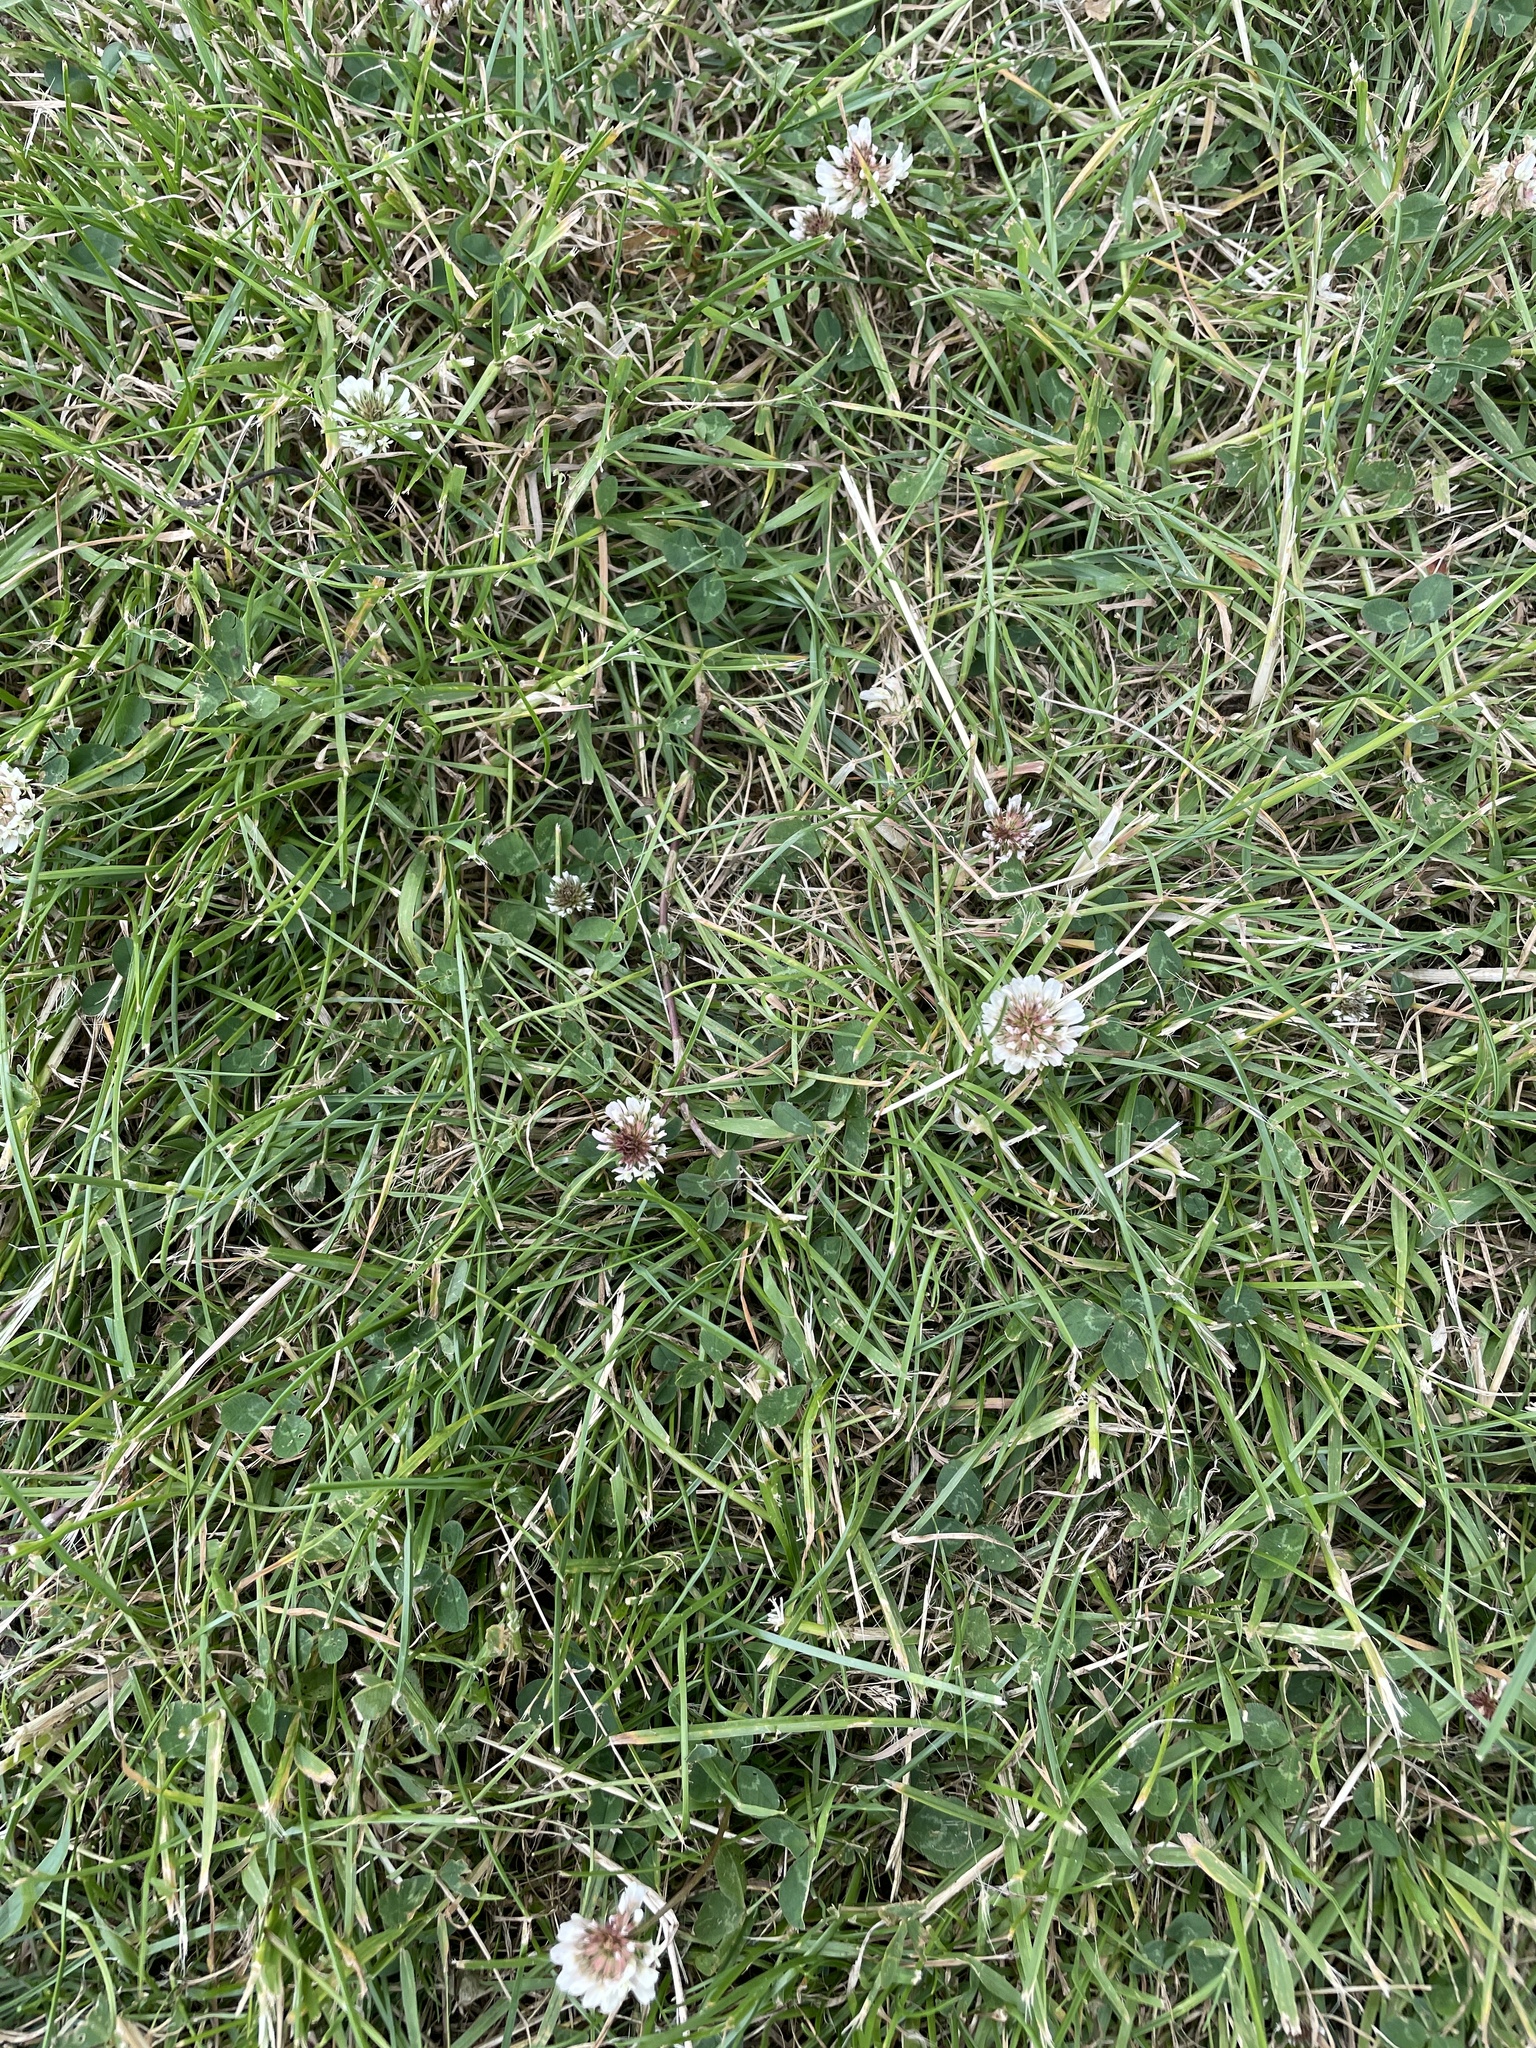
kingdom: Plantae
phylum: Tracheophyta
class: Magnoliopsida
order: Fabales
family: Fabaceae
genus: Trifolium
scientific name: Trifolium repens
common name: White clover
